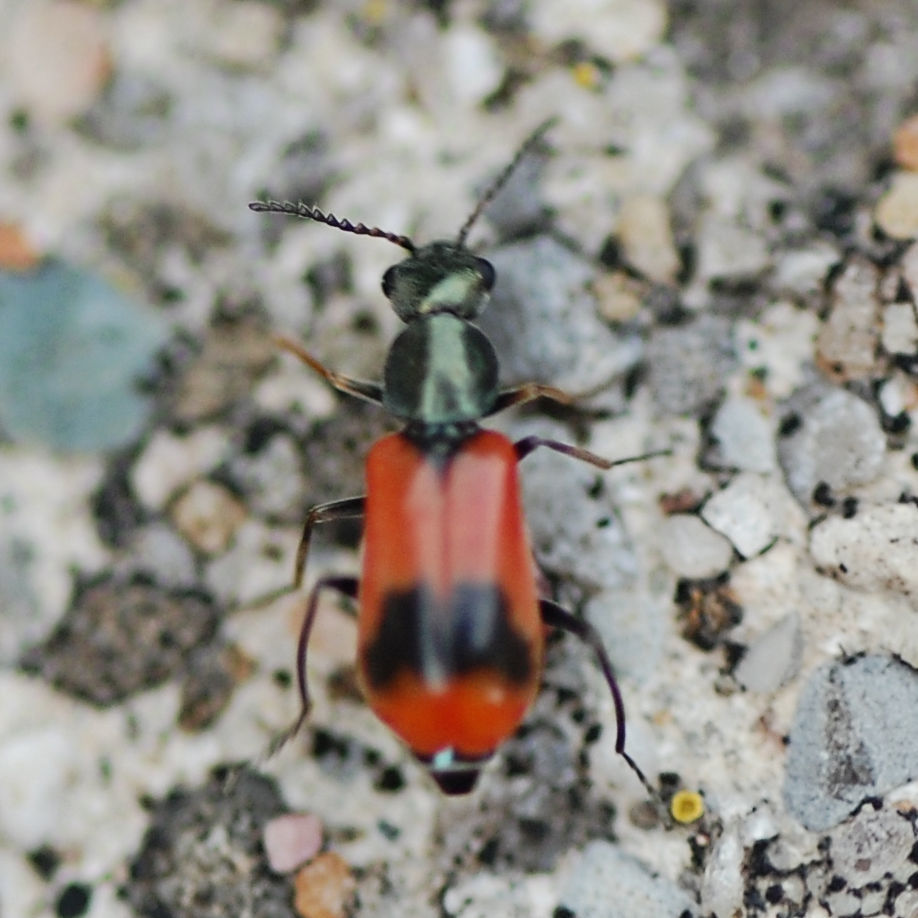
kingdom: Animalia
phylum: Arthropoda
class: Insecta
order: Coleoptera
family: Melyridae
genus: Anthocomus
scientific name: Anthocomus equestris
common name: Black-banded soft-winged flower beetle
